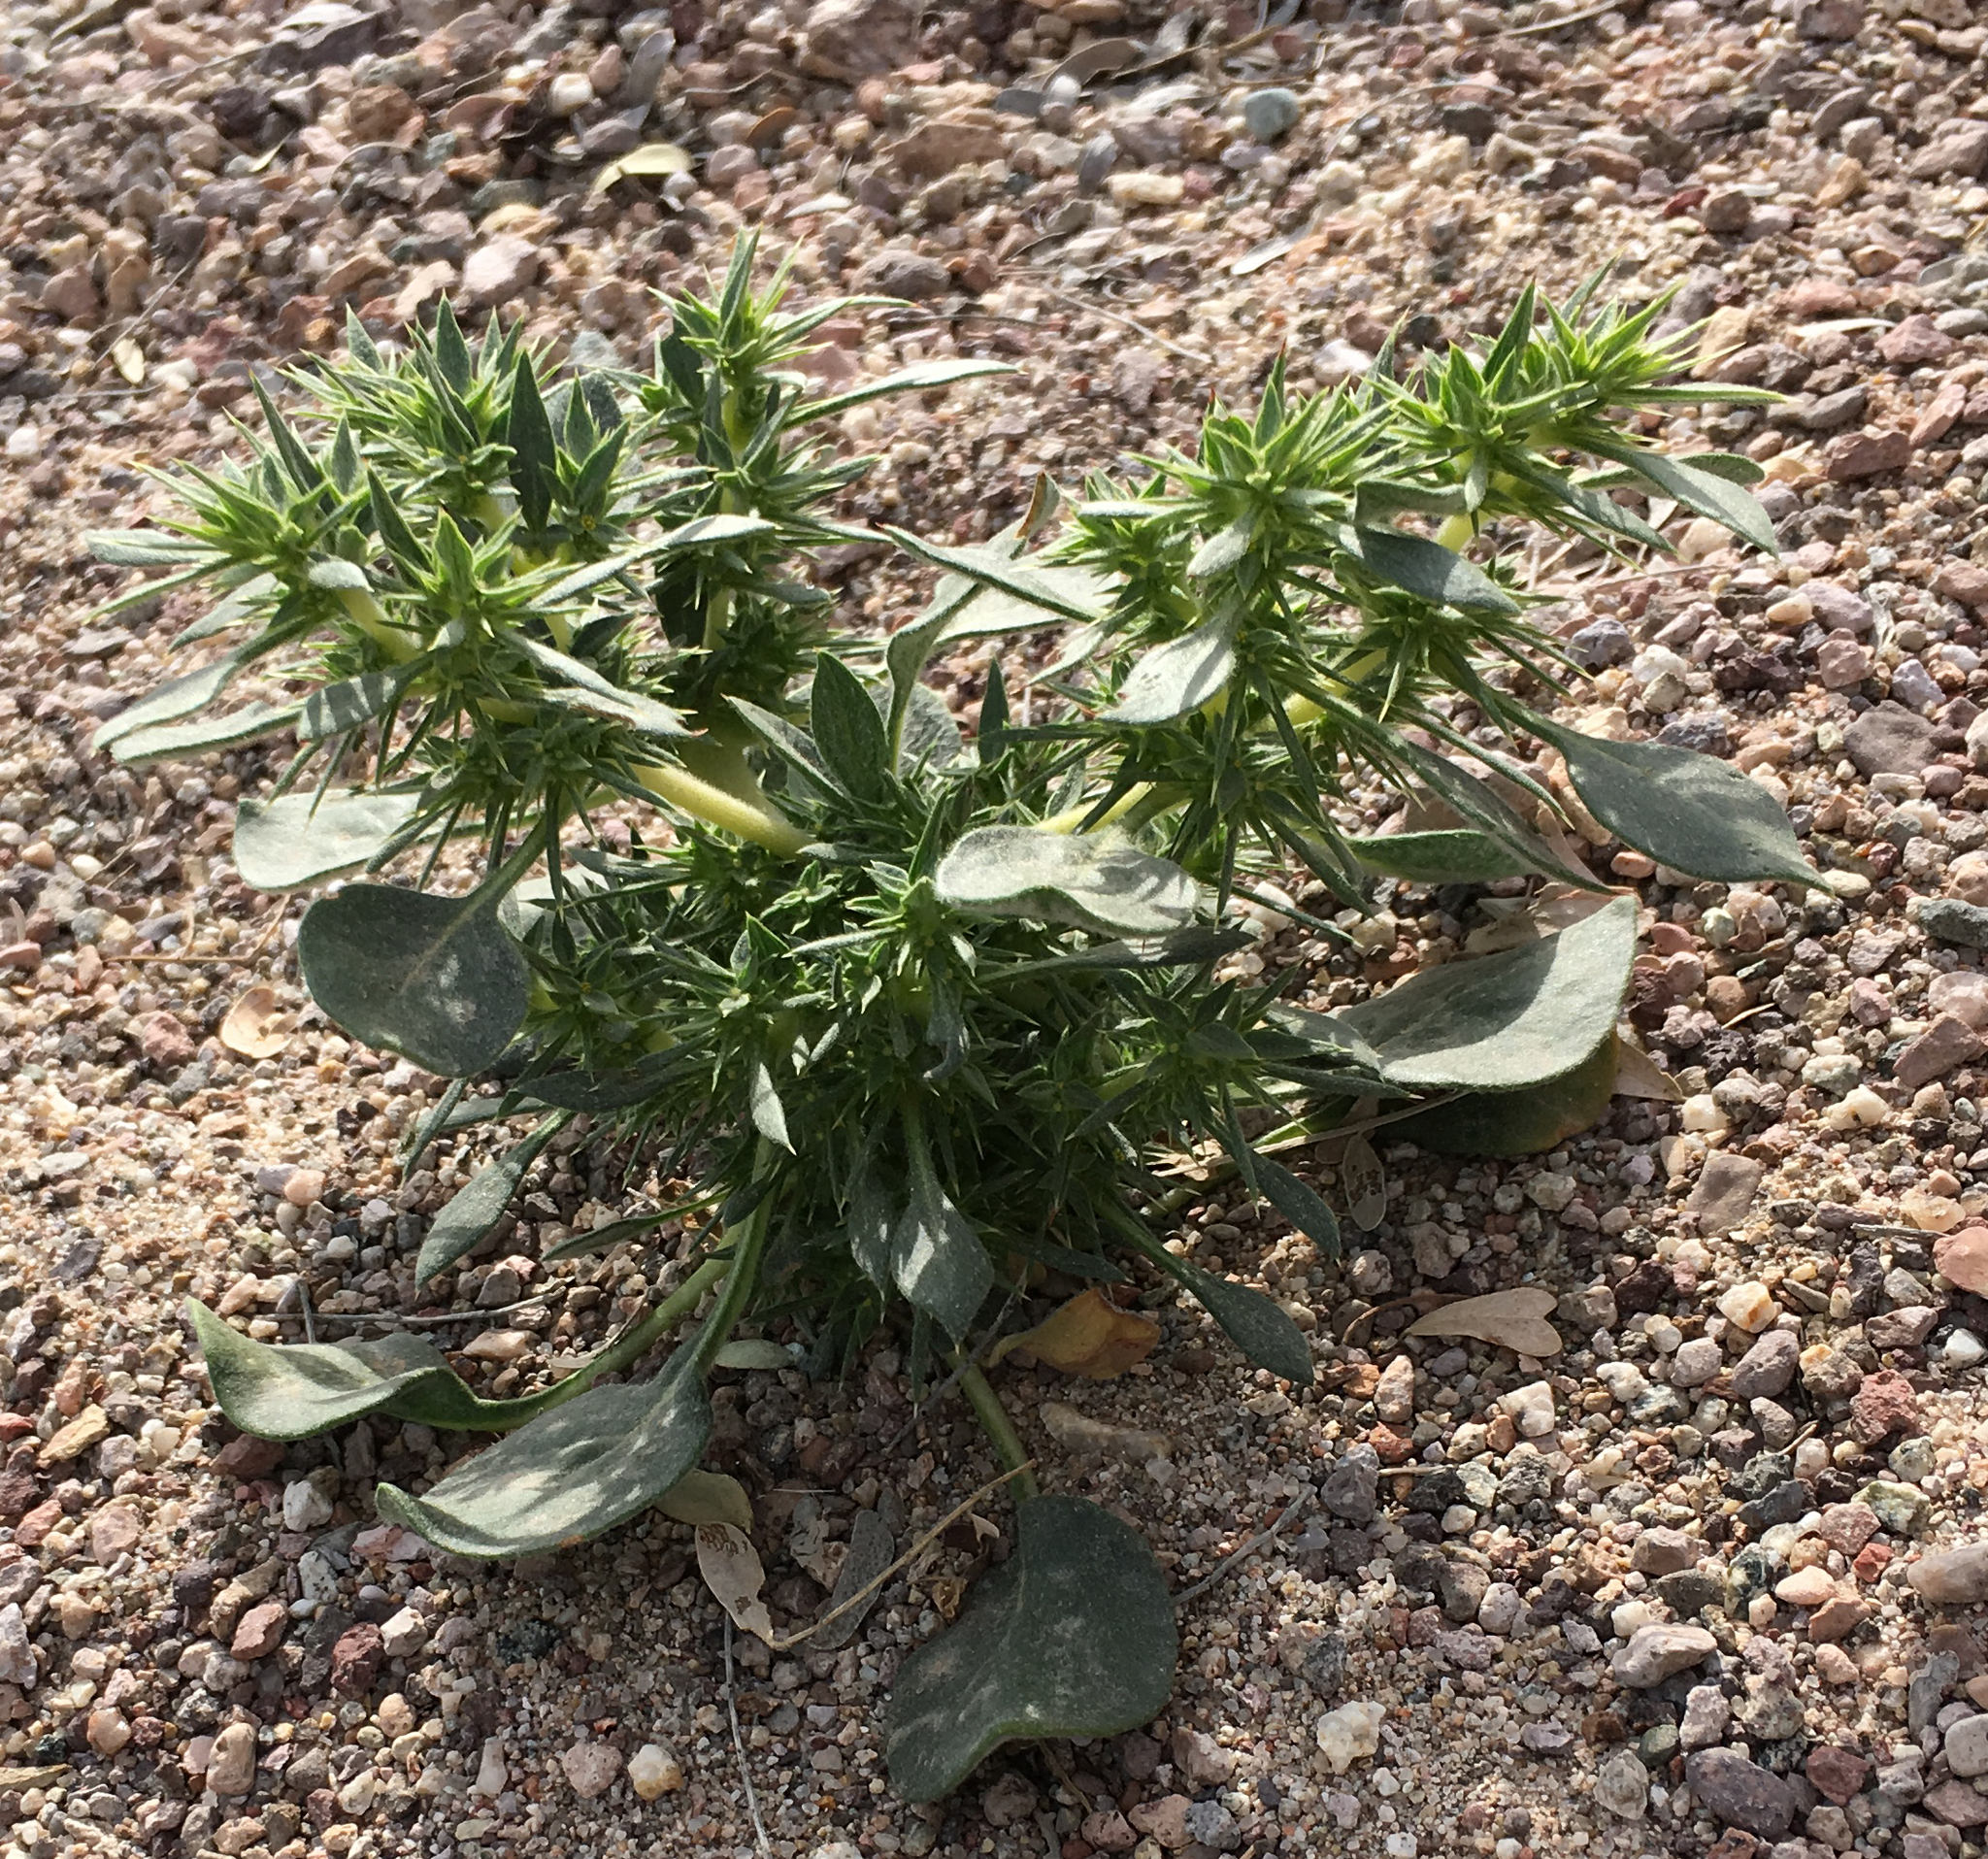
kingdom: Plantae
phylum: Tracheophyta
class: Magnoliopsida
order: Caryophyllales
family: Polygonaceae
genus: Chorizanthe
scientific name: Chorizanthe rigida
